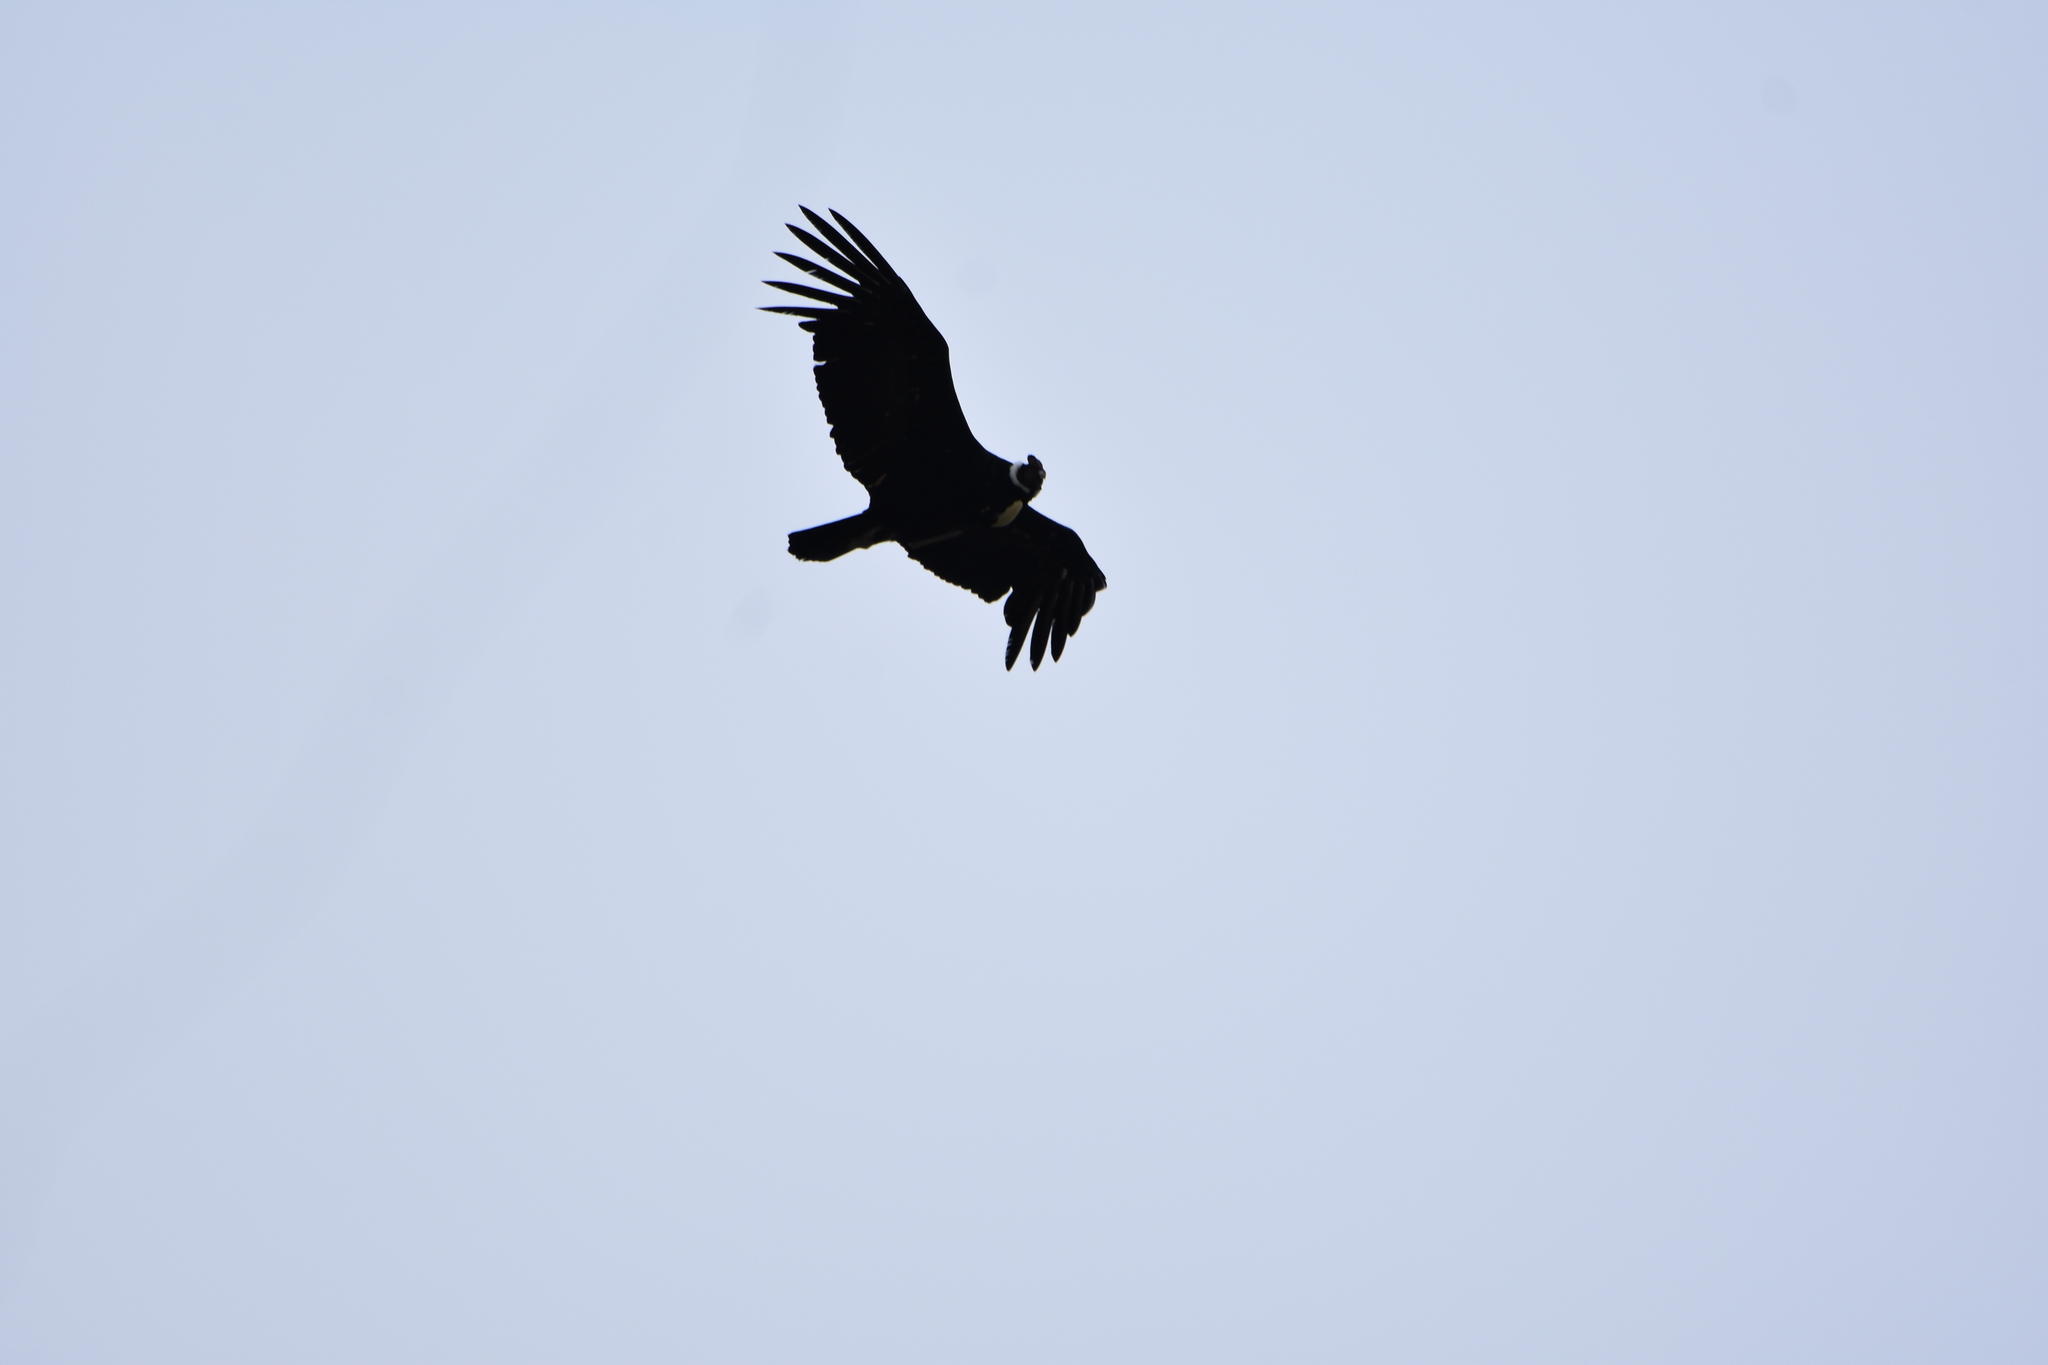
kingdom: Animalia
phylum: Chordata
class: Aves
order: Accipitriformes
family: Cathartidae
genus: Vultur
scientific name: Vultur gryphus
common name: Andean condor
